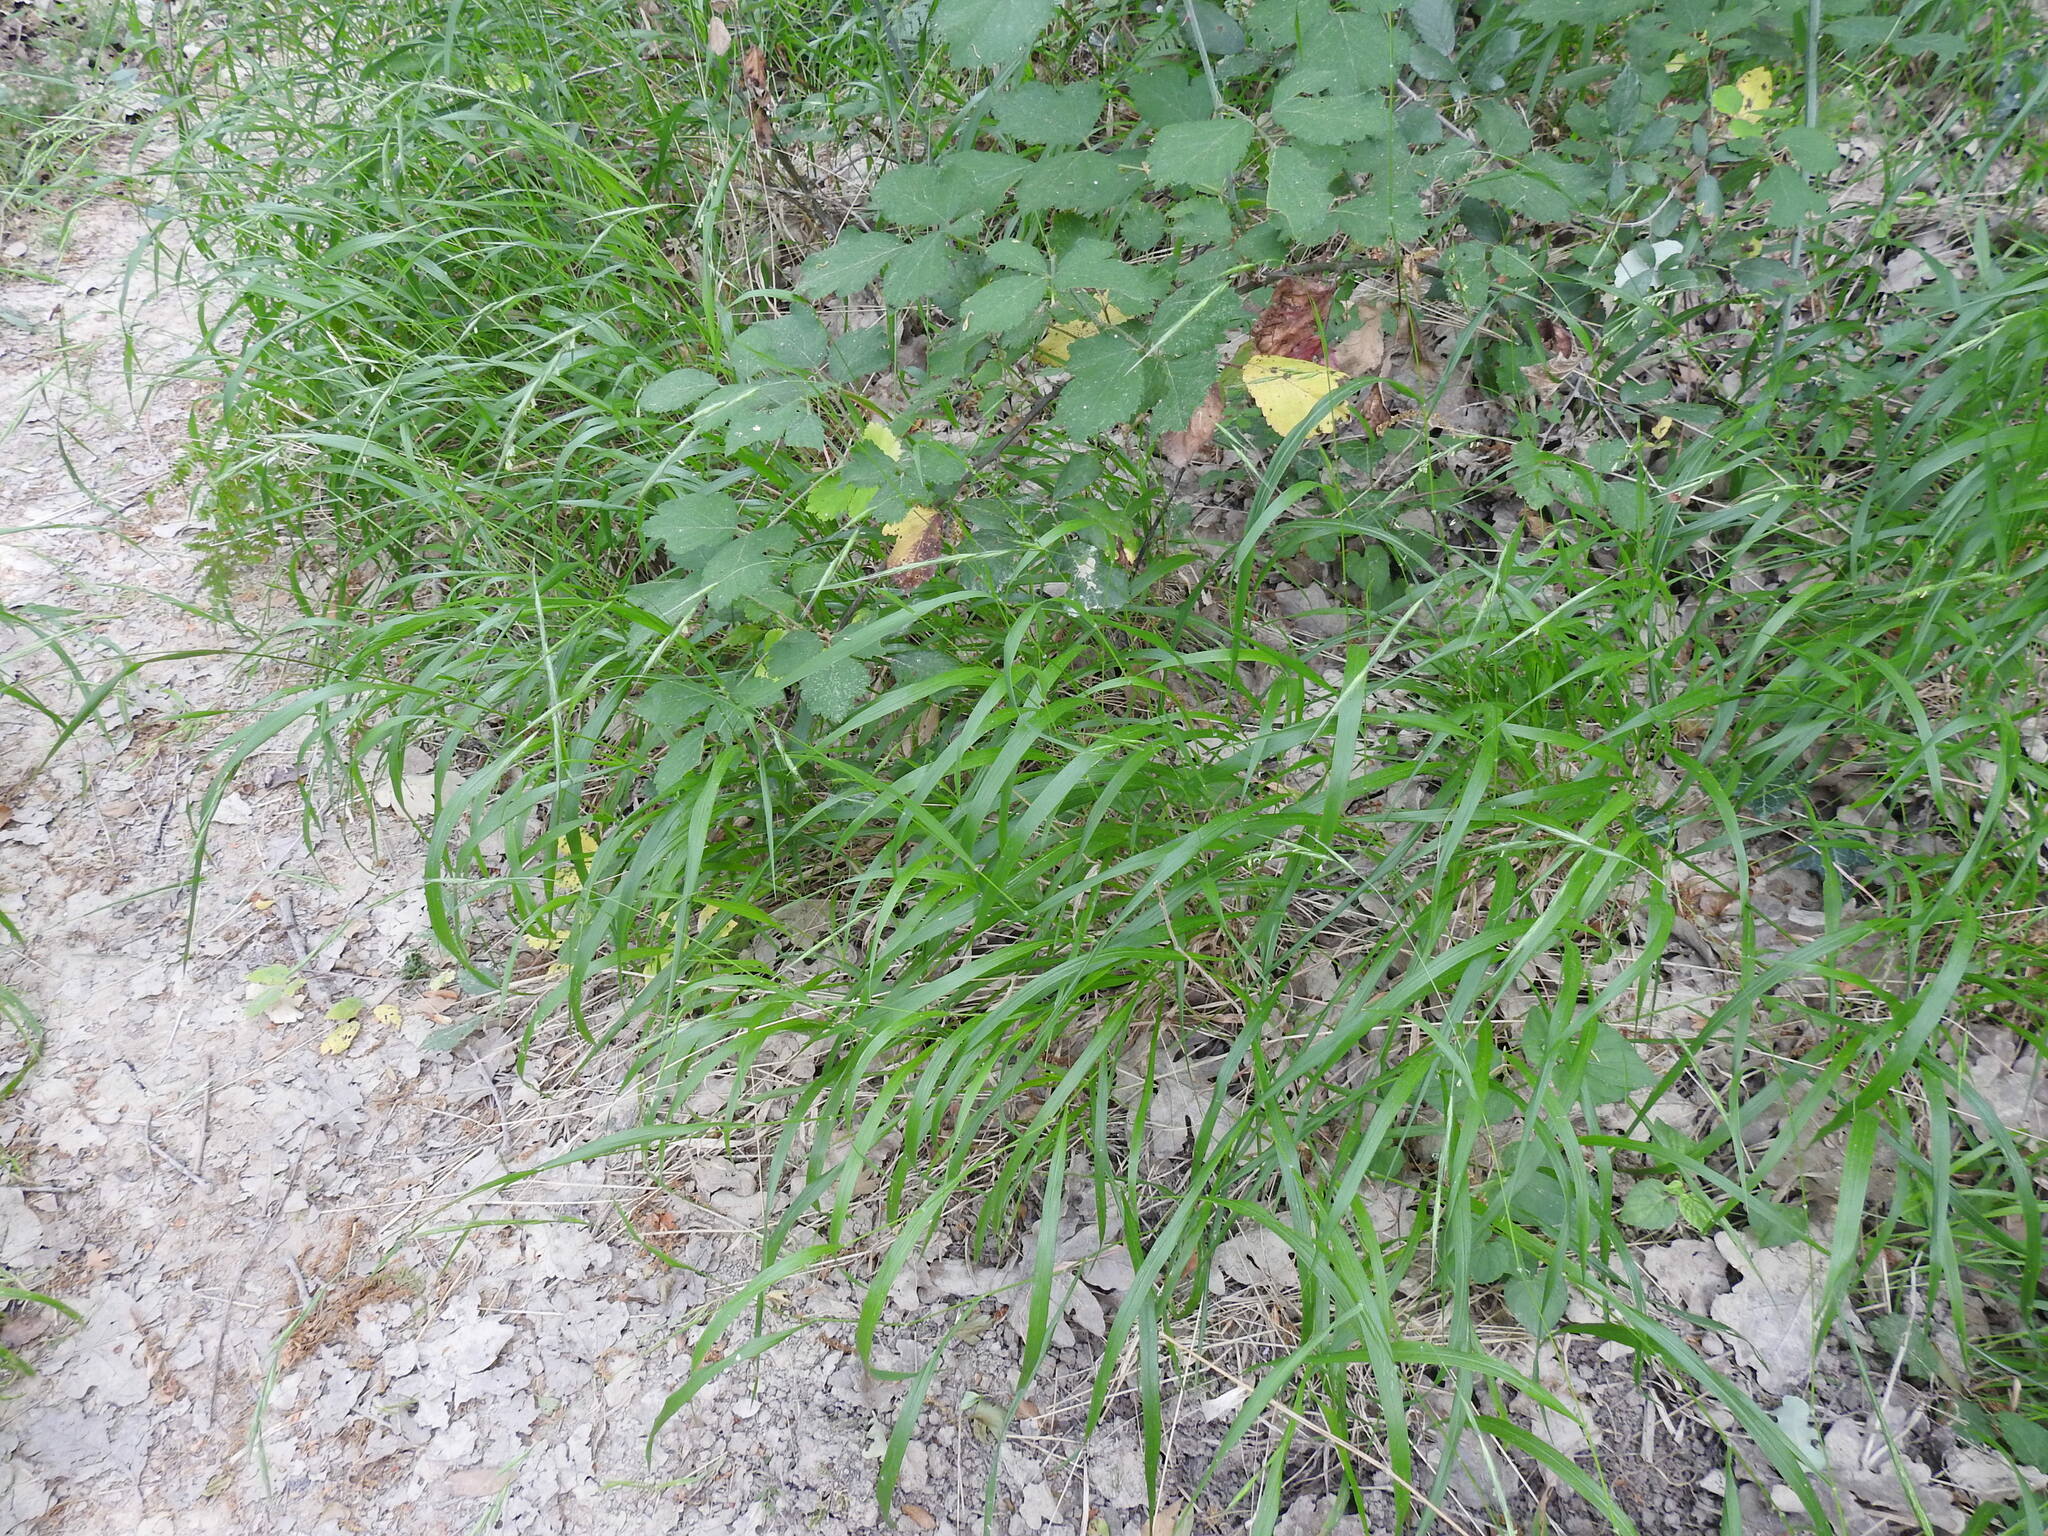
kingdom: Plantae
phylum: Tracheophyta
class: Liliopsida
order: Poales
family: Poaceae
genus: Brachypodium
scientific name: Brachypodium sylvaticum
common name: False-brome
